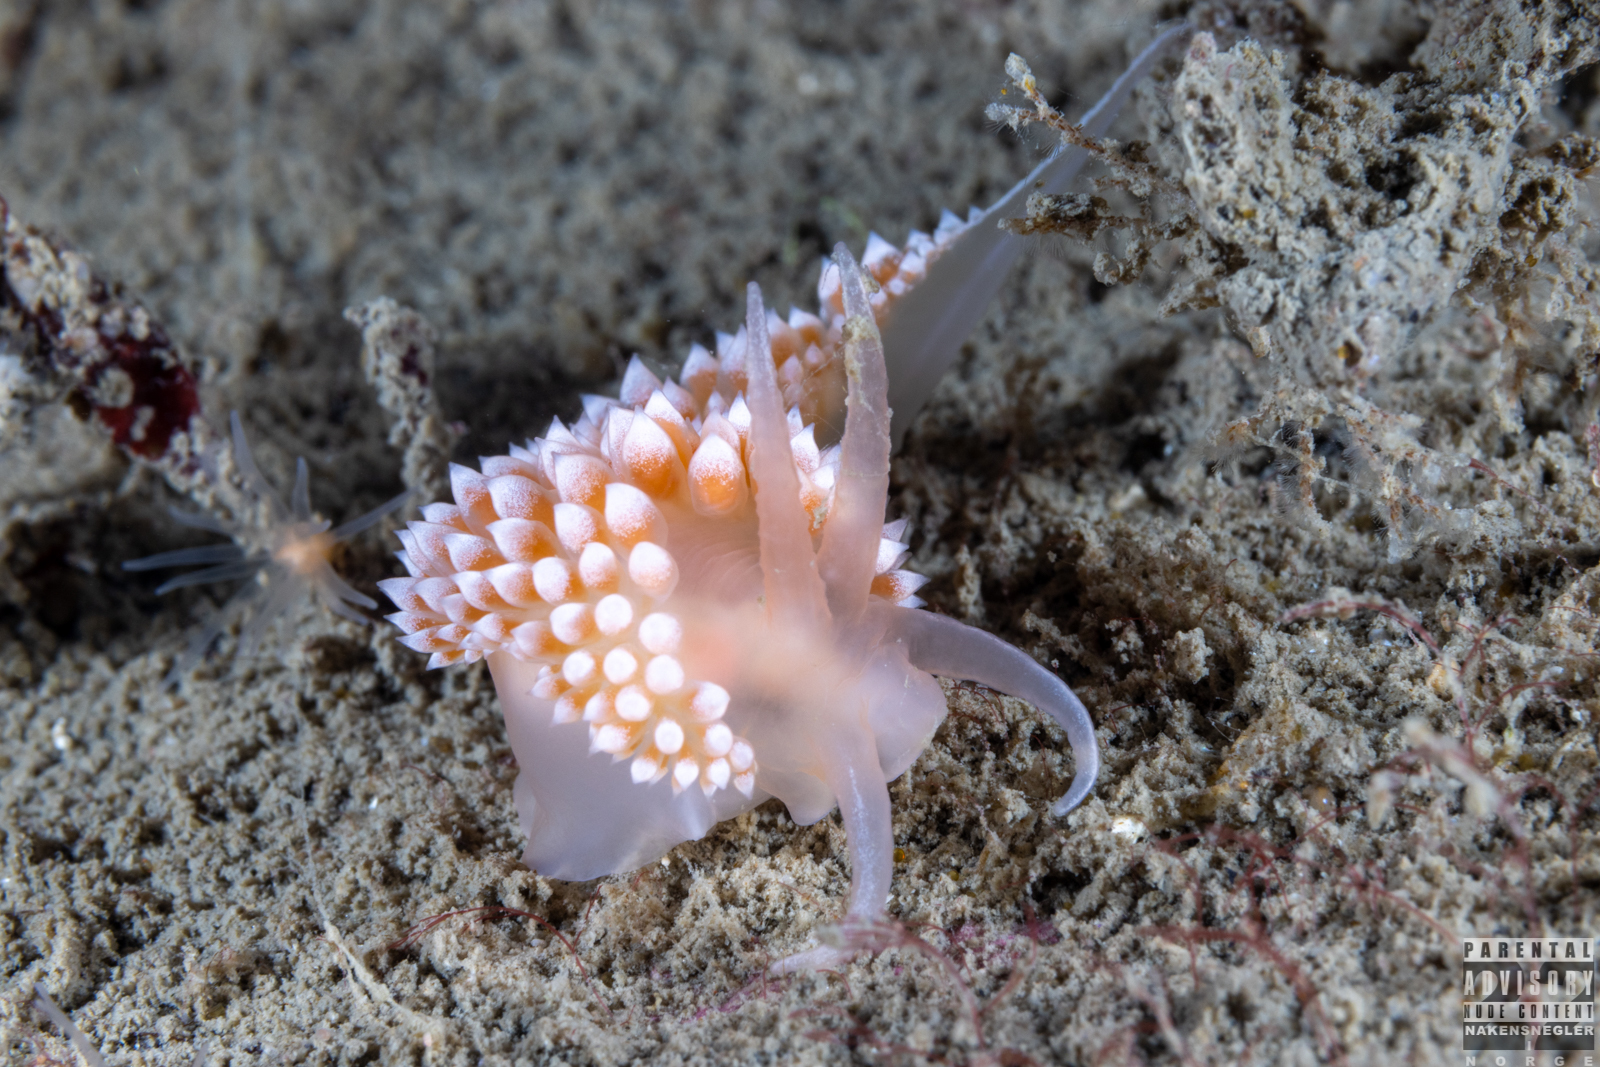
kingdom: Animalia
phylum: Mollusca
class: Gastropoda
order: Nudibranchia
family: Coryphellidae
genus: Coryphella
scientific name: Coryphella verrucosa
